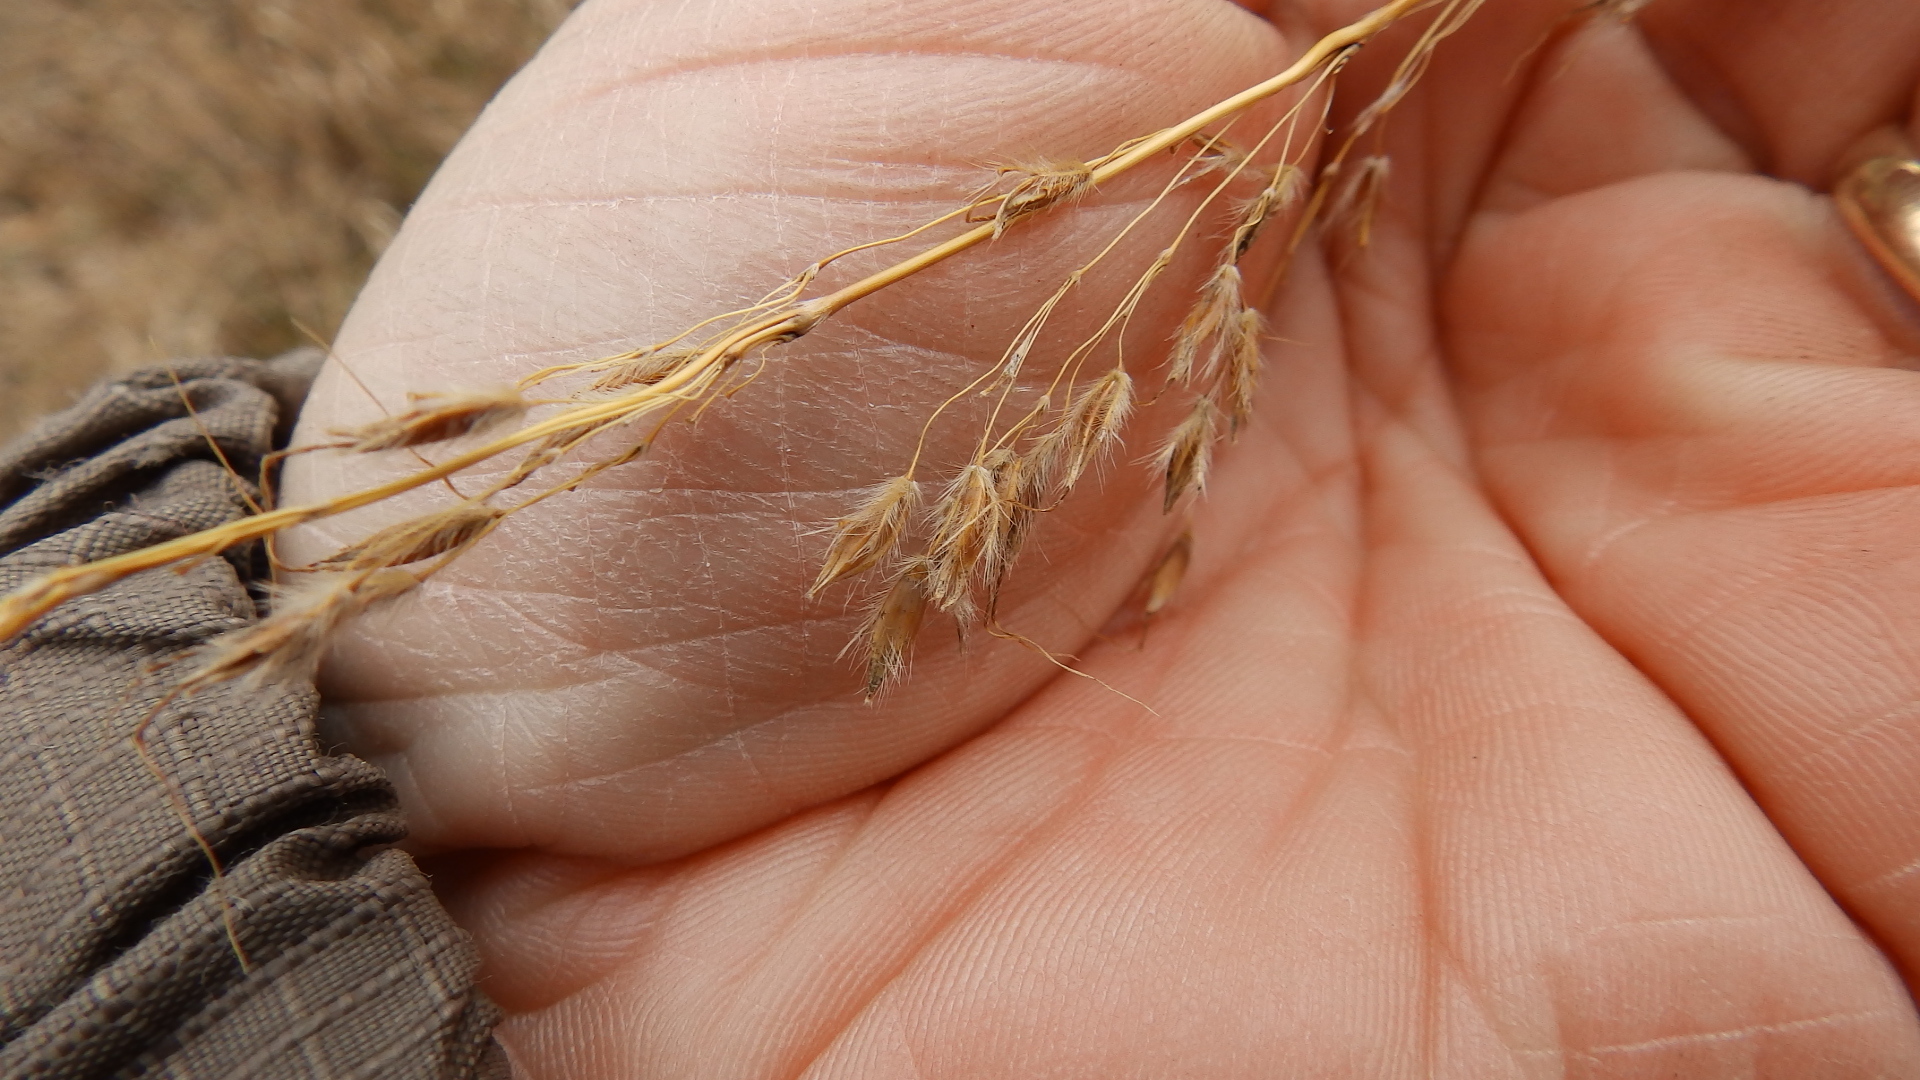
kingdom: Plantae
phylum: Tracheophyta
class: Liliopsida
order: Poales
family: Poaceae
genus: Sorghastrum
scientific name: Sorghastrum nutans
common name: Indian grass
